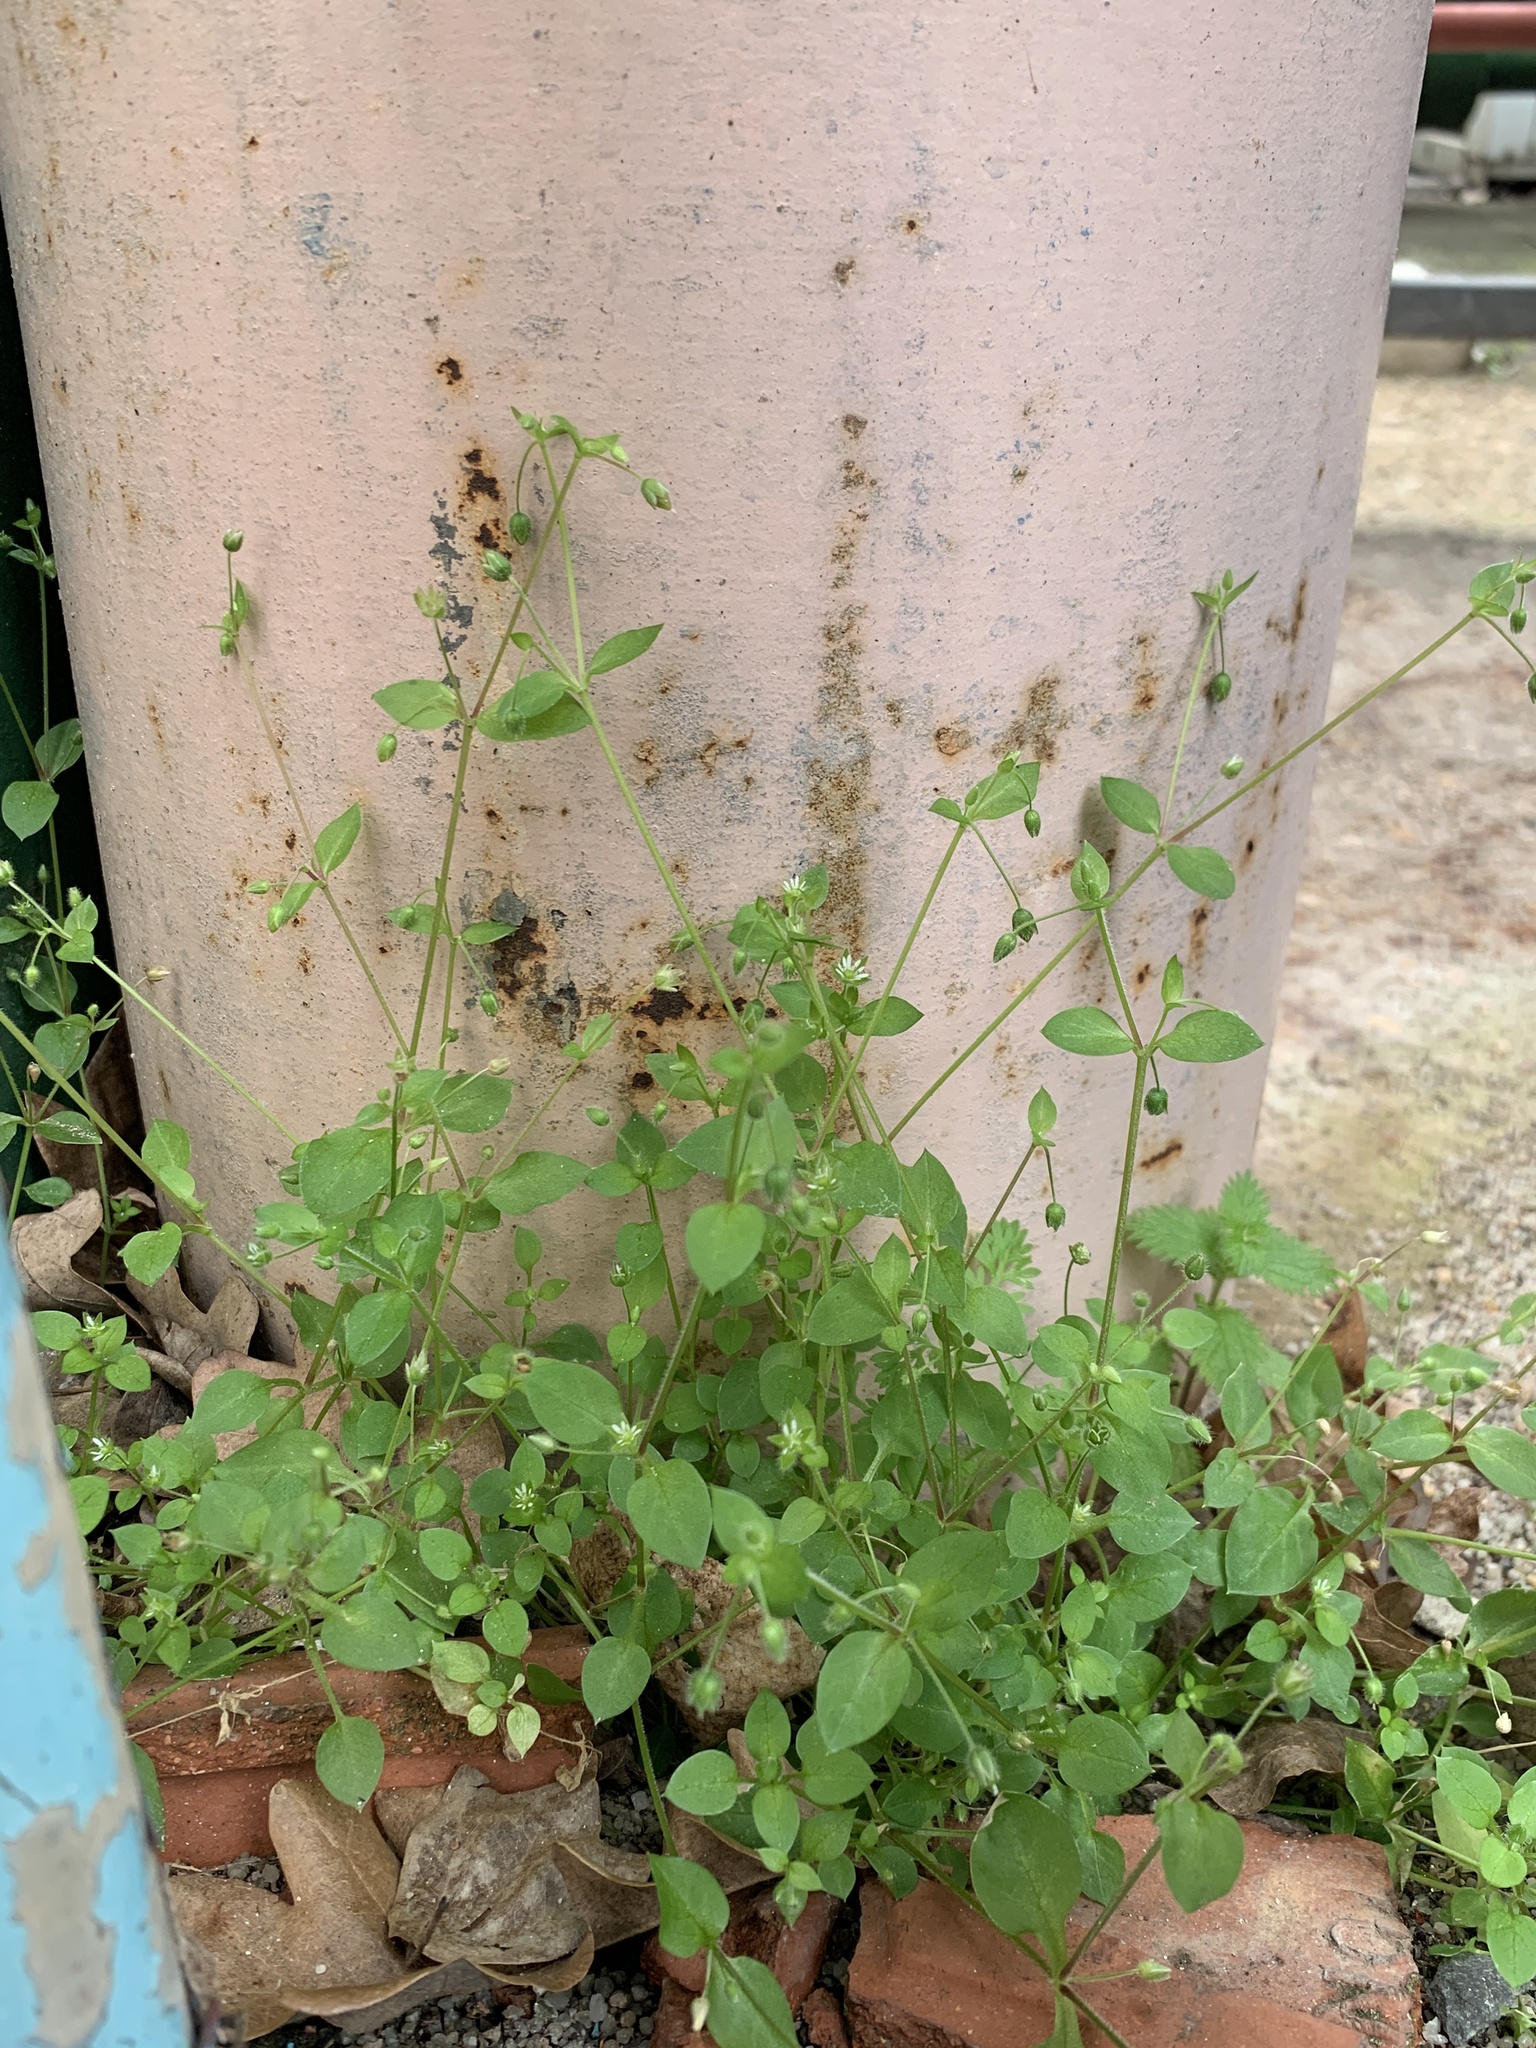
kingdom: Plantae
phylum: Tracheophyta
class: Magnoliopsida
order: Caryophyllales
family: Caryophyllaceae
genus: Stellaria
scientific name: Stellaria media
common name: Common chickweed
